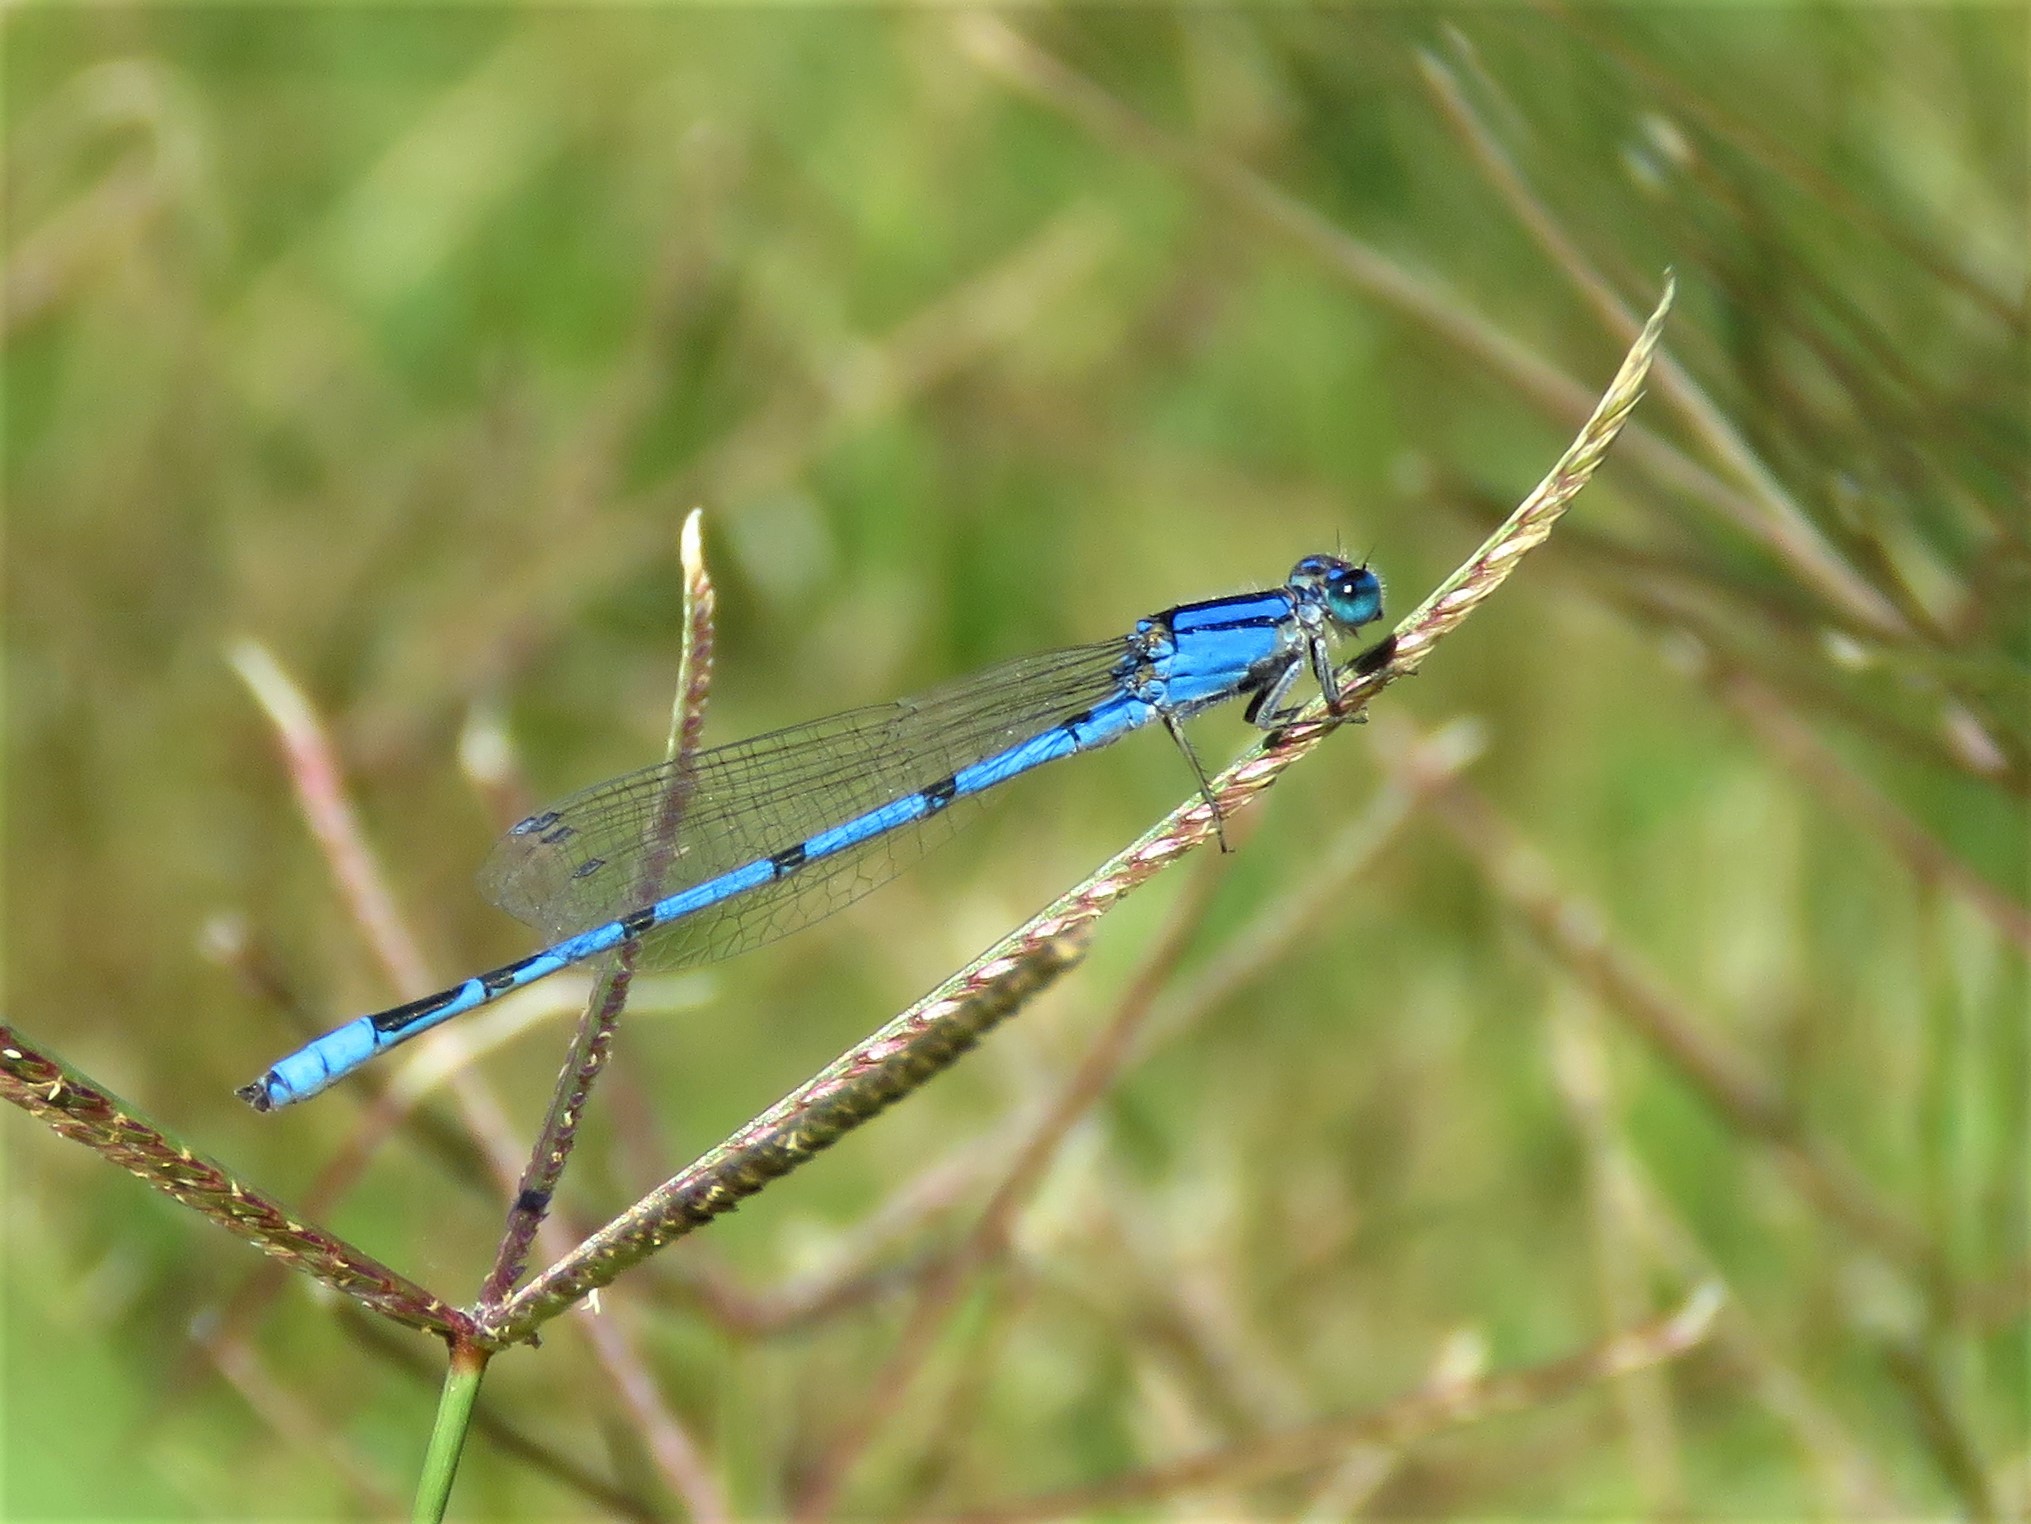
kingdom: Animalia
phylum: Arthropoda
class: Insecta
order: Odonata
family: Coenagrionidae
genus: Enallagma
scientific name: Enallagma civile
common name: Damselfly
